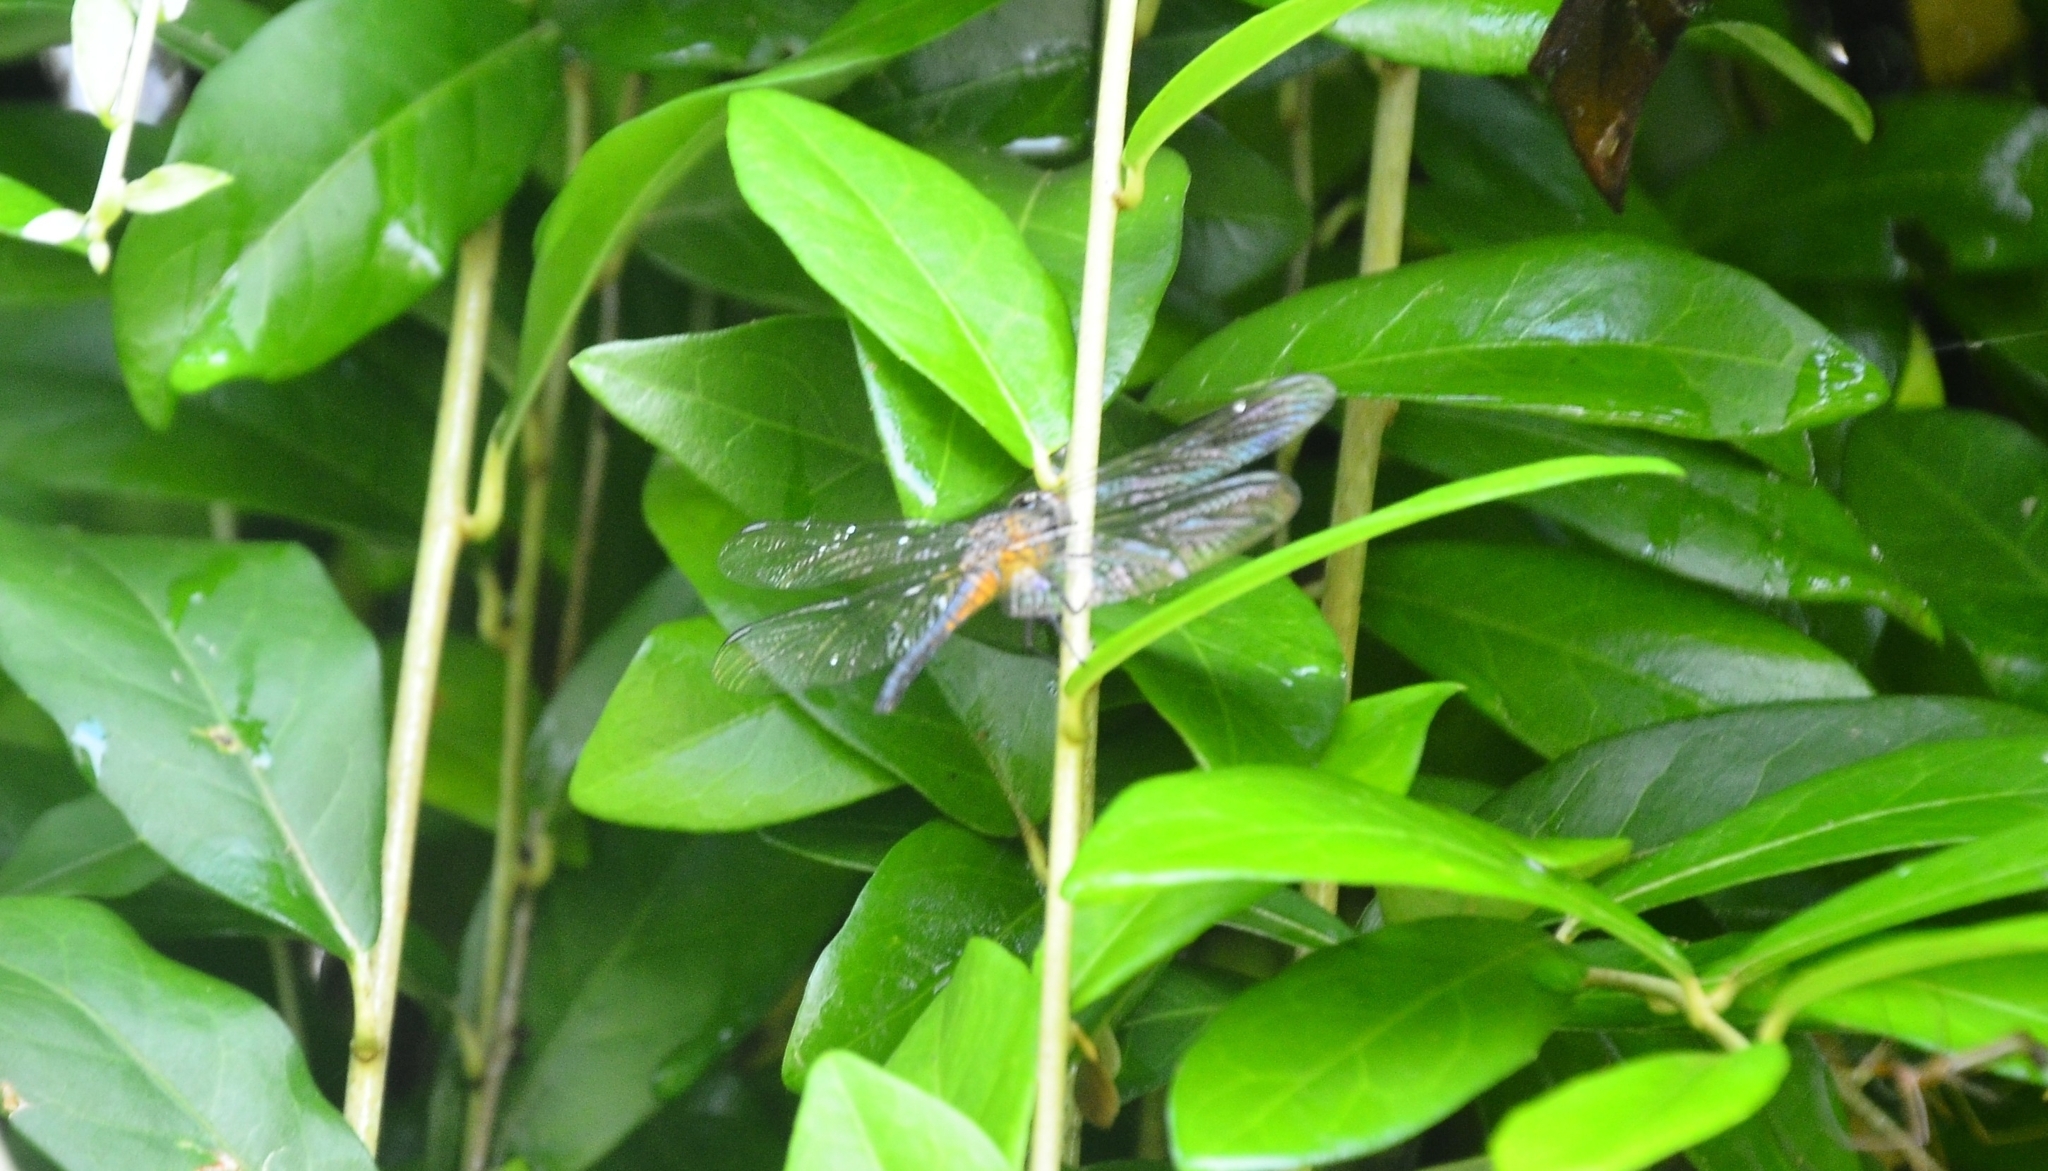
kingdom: Animalia
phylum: Arthropoda
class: Insecta
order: Odonata
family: Libellulidae
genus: Brachydiplax
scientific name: Brachydiplax chalybea
